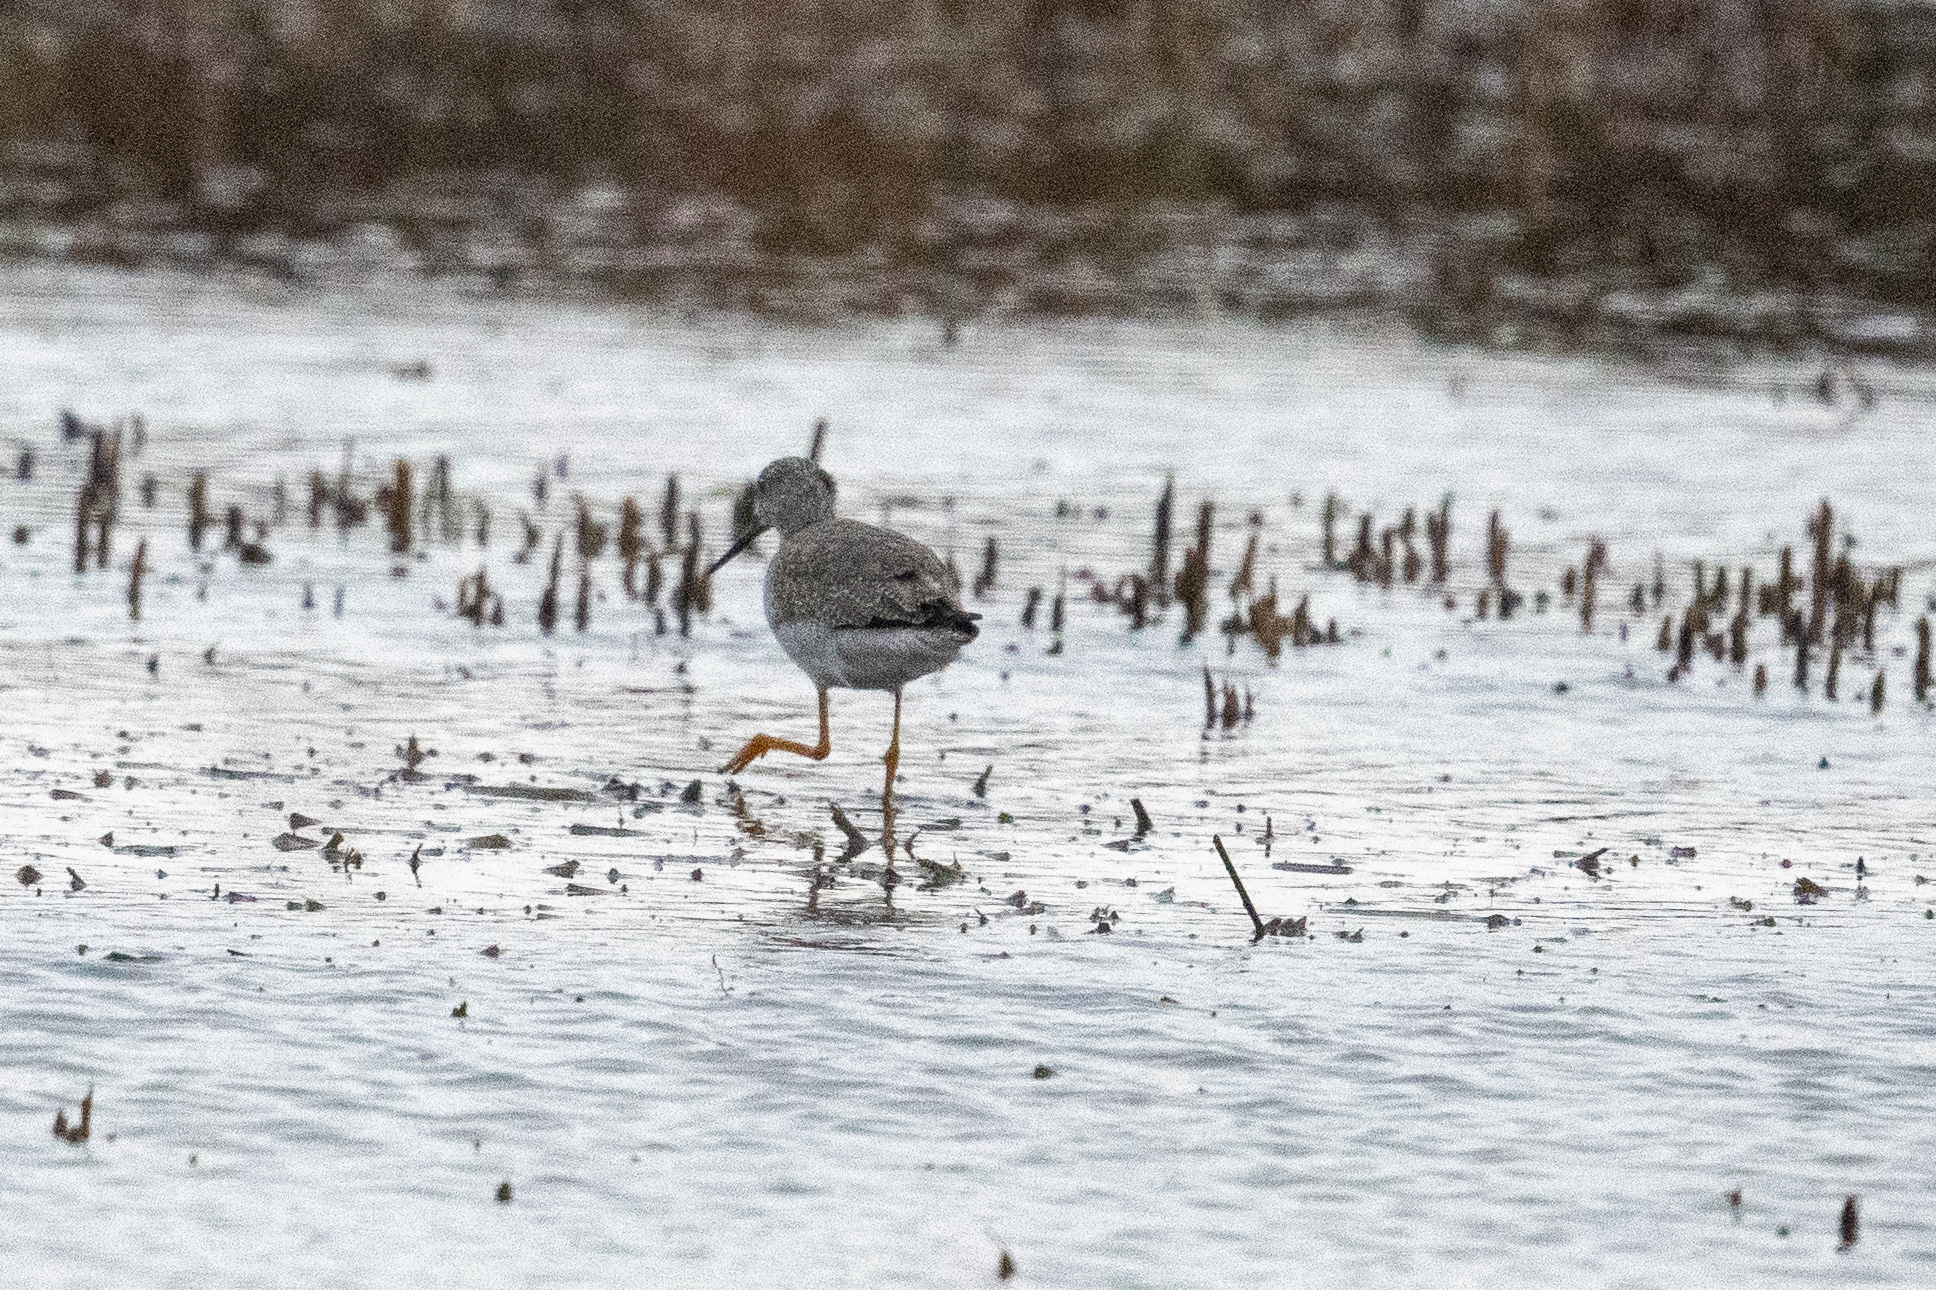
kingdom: Animalia
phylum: Chordata
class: Aves
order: Charadriiformes
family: Scolopacidae
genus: Tringa
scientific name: Tringa melanoleuca
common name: Greater yellowlegs
